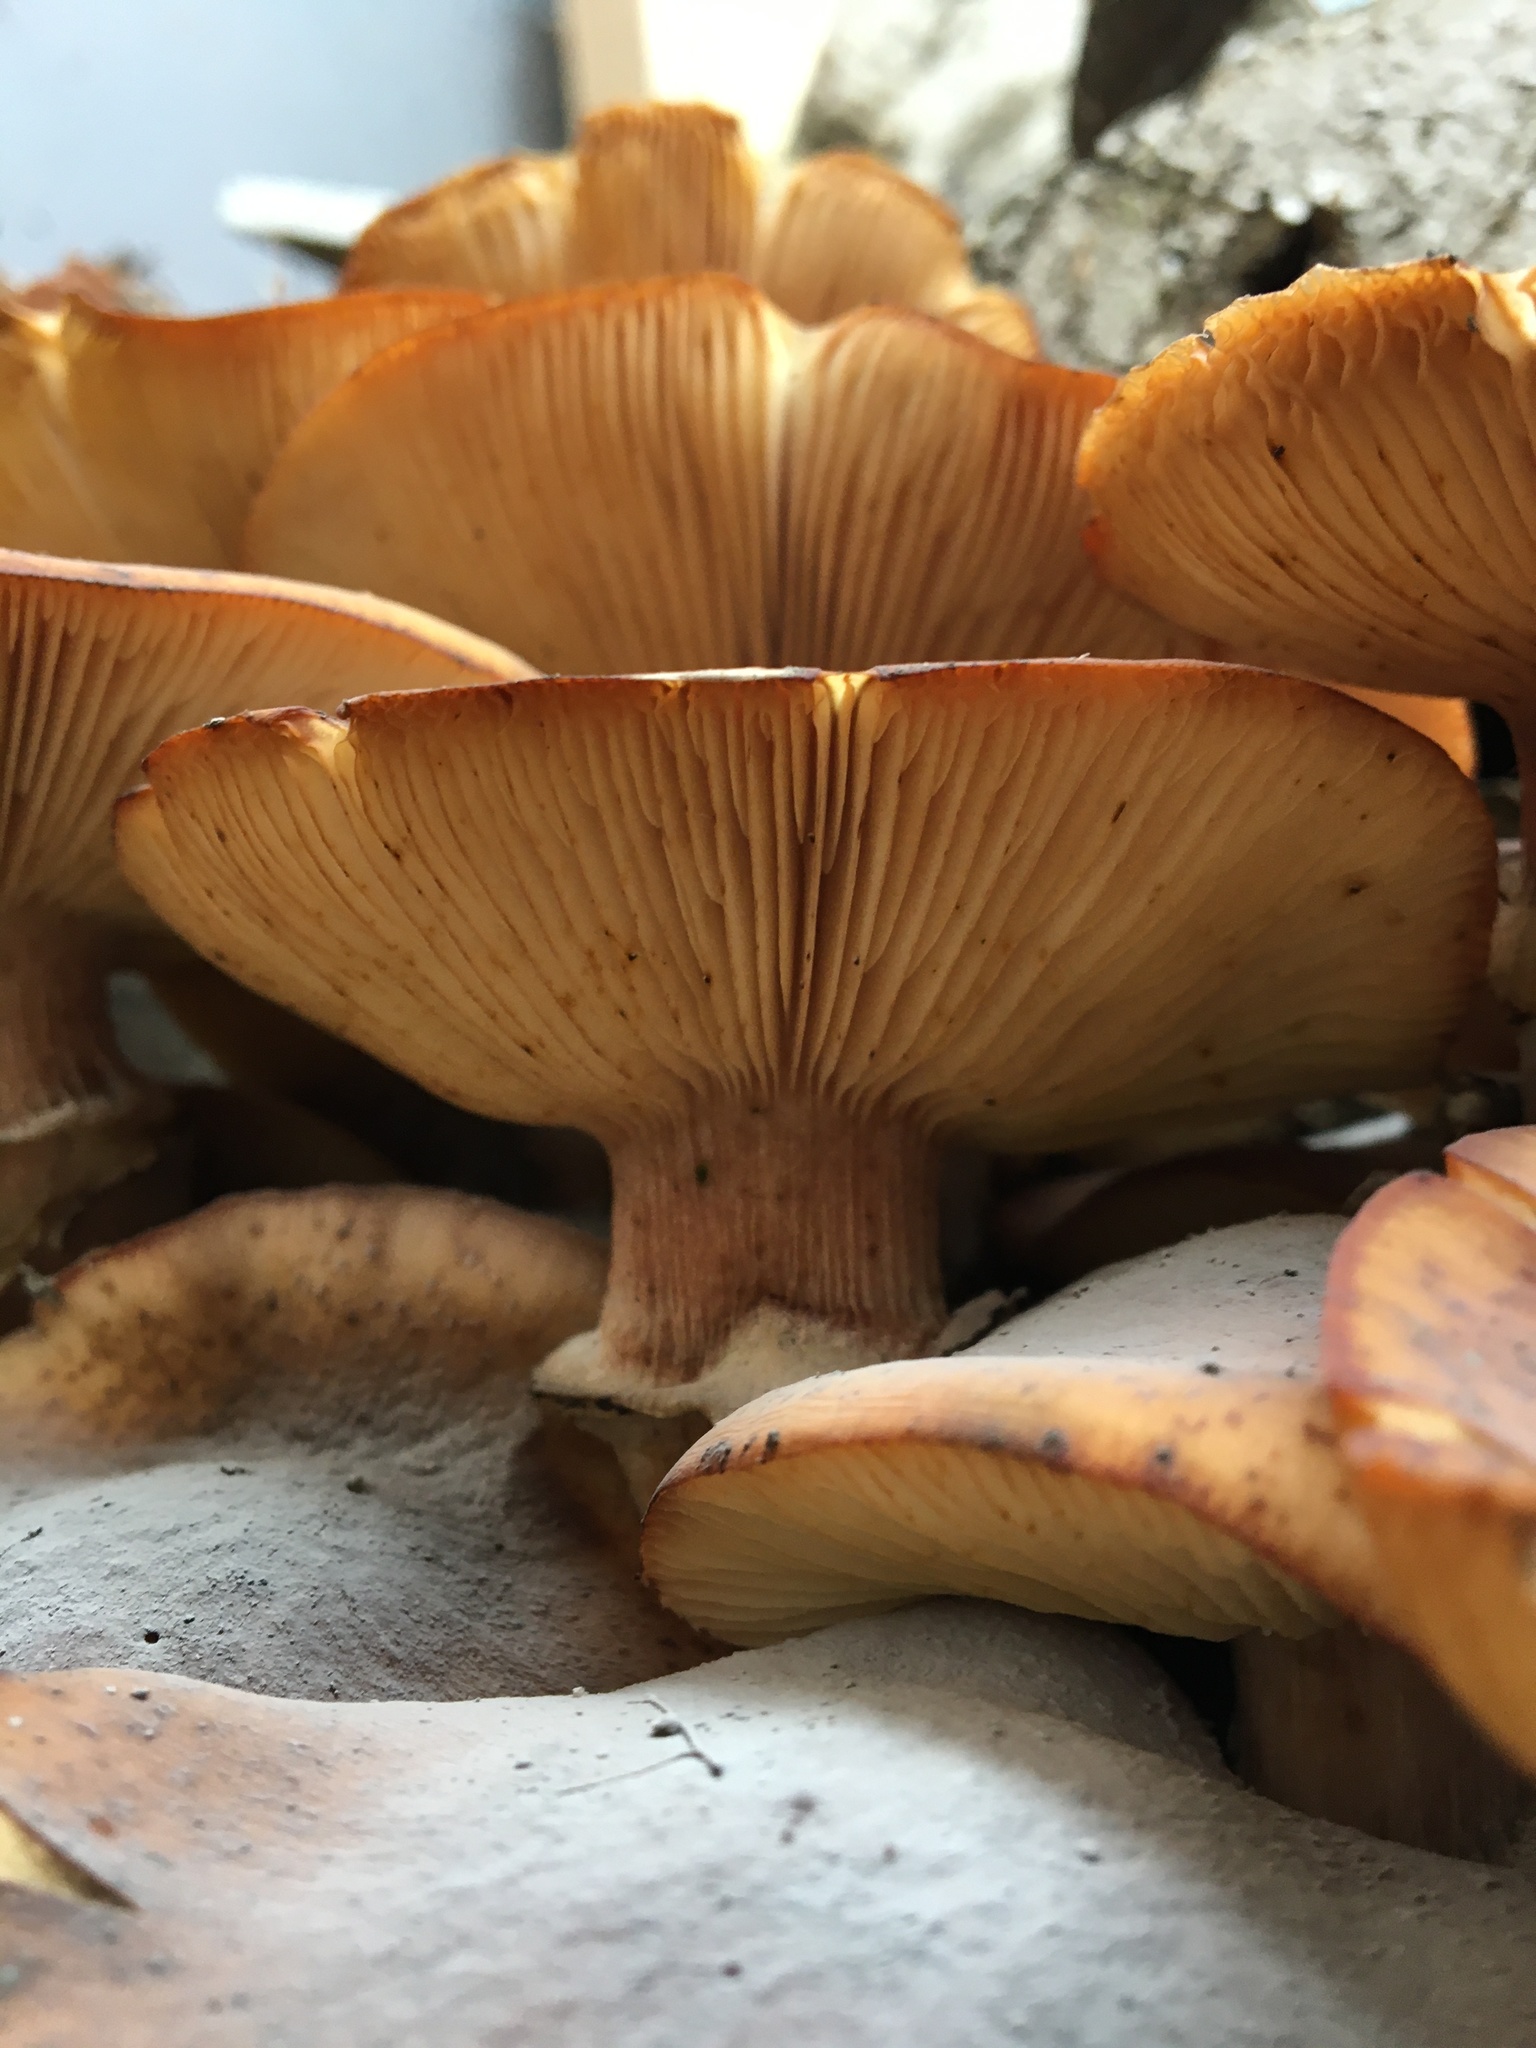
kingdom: Fungi
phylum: Basidiomycota
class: Agaricomycetes
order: Agaricales
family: Physalacriaceae
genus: Armillaria
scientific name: Armillaria mellea
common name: Honey fungus
